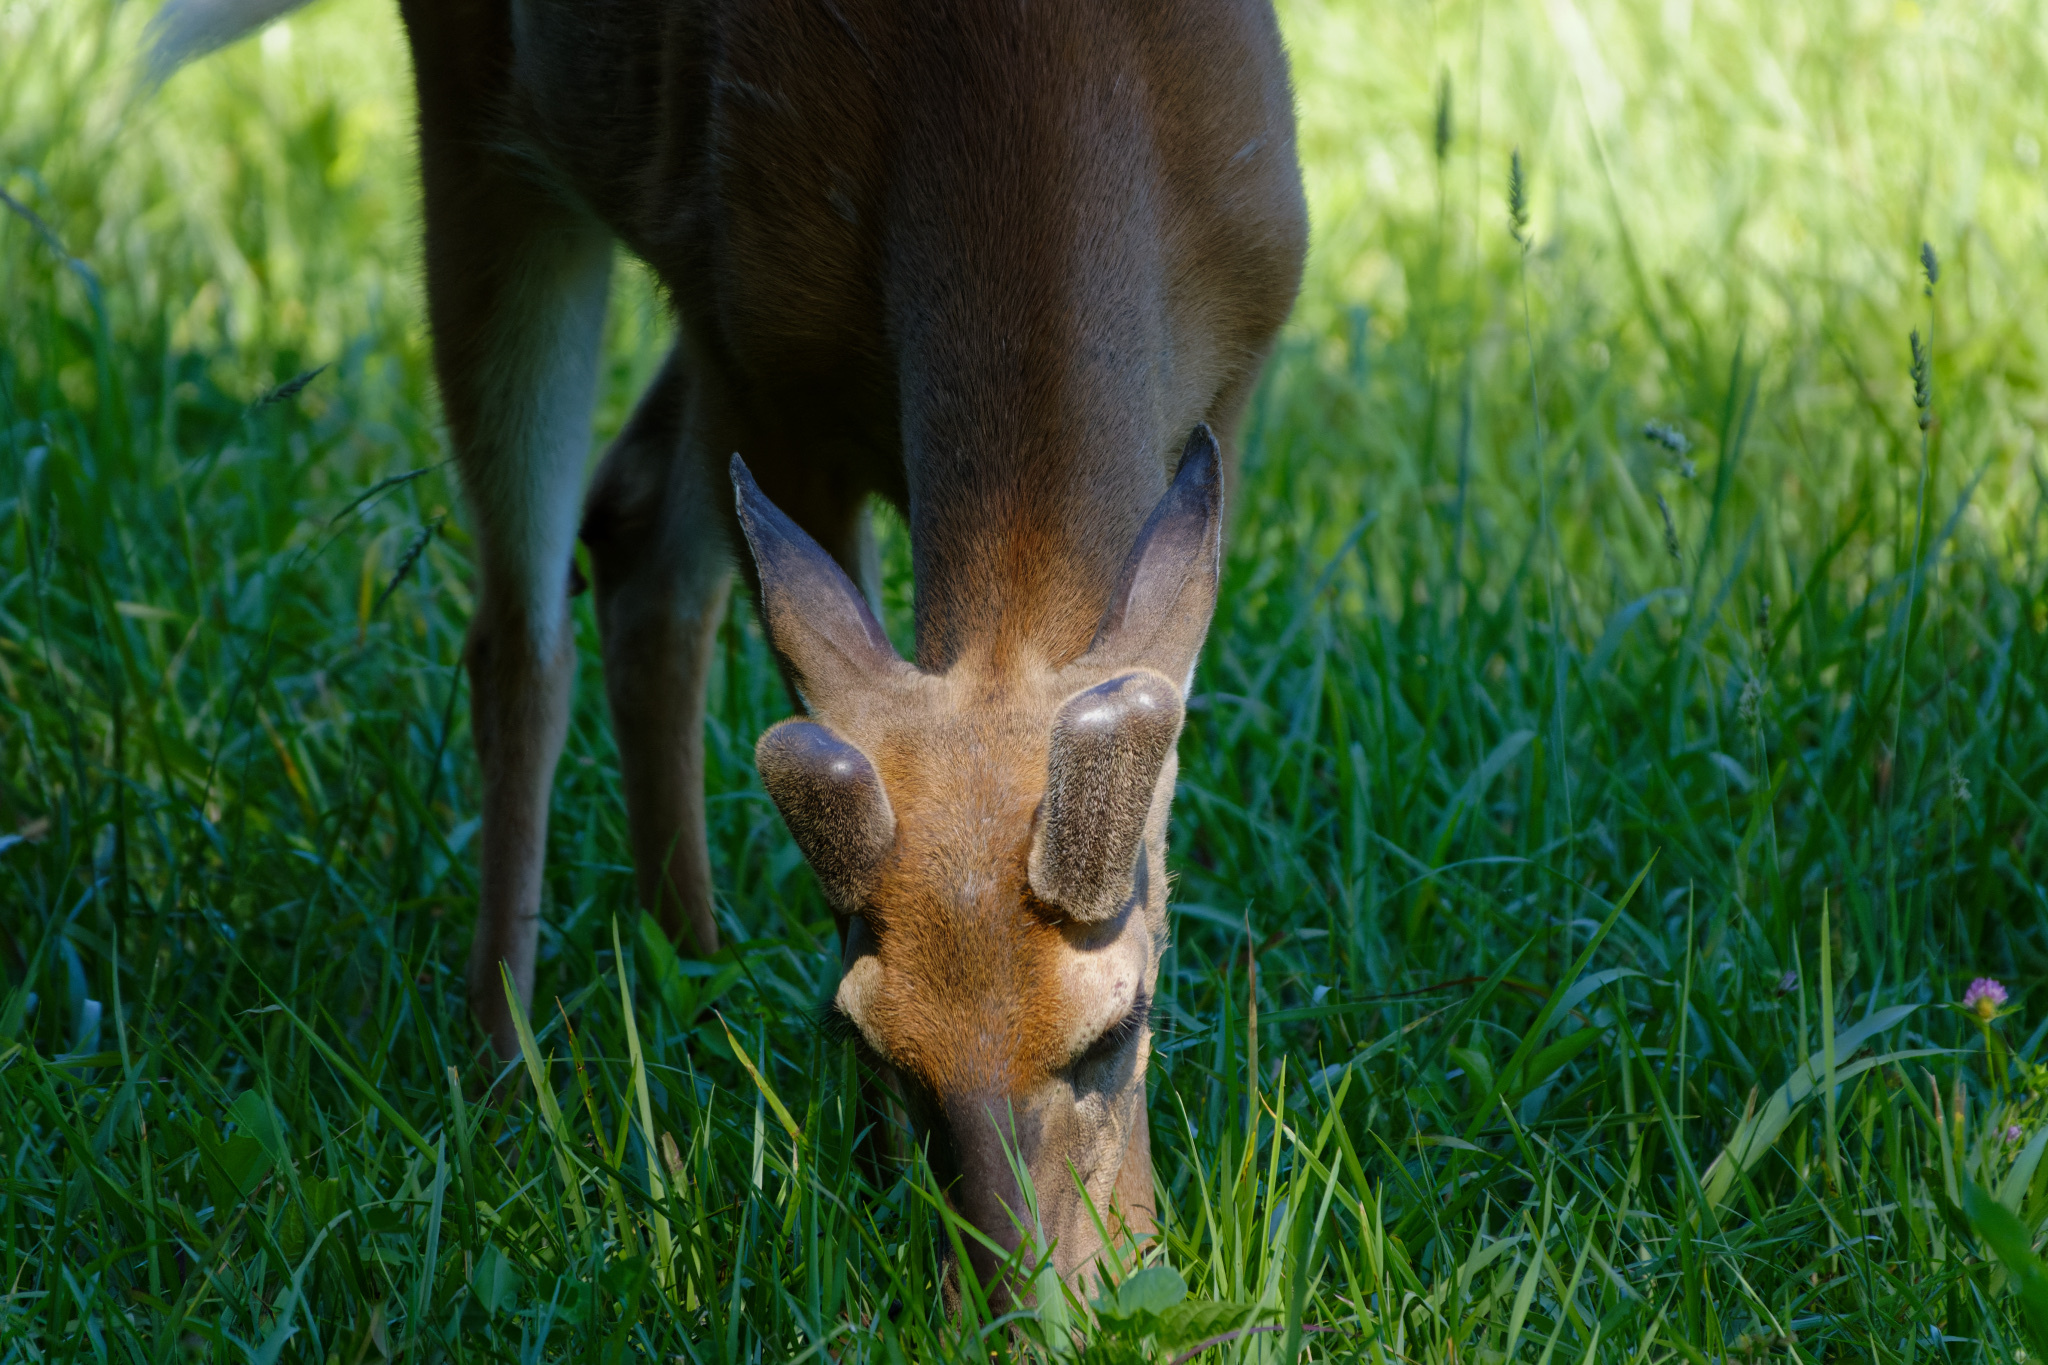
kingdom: Animalia
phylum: Chordata
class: Mammalia
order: Artiodactyla
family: Cervidae
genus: Odocoileus
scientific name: Odocoileus virginianus
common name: White-tailed deer
